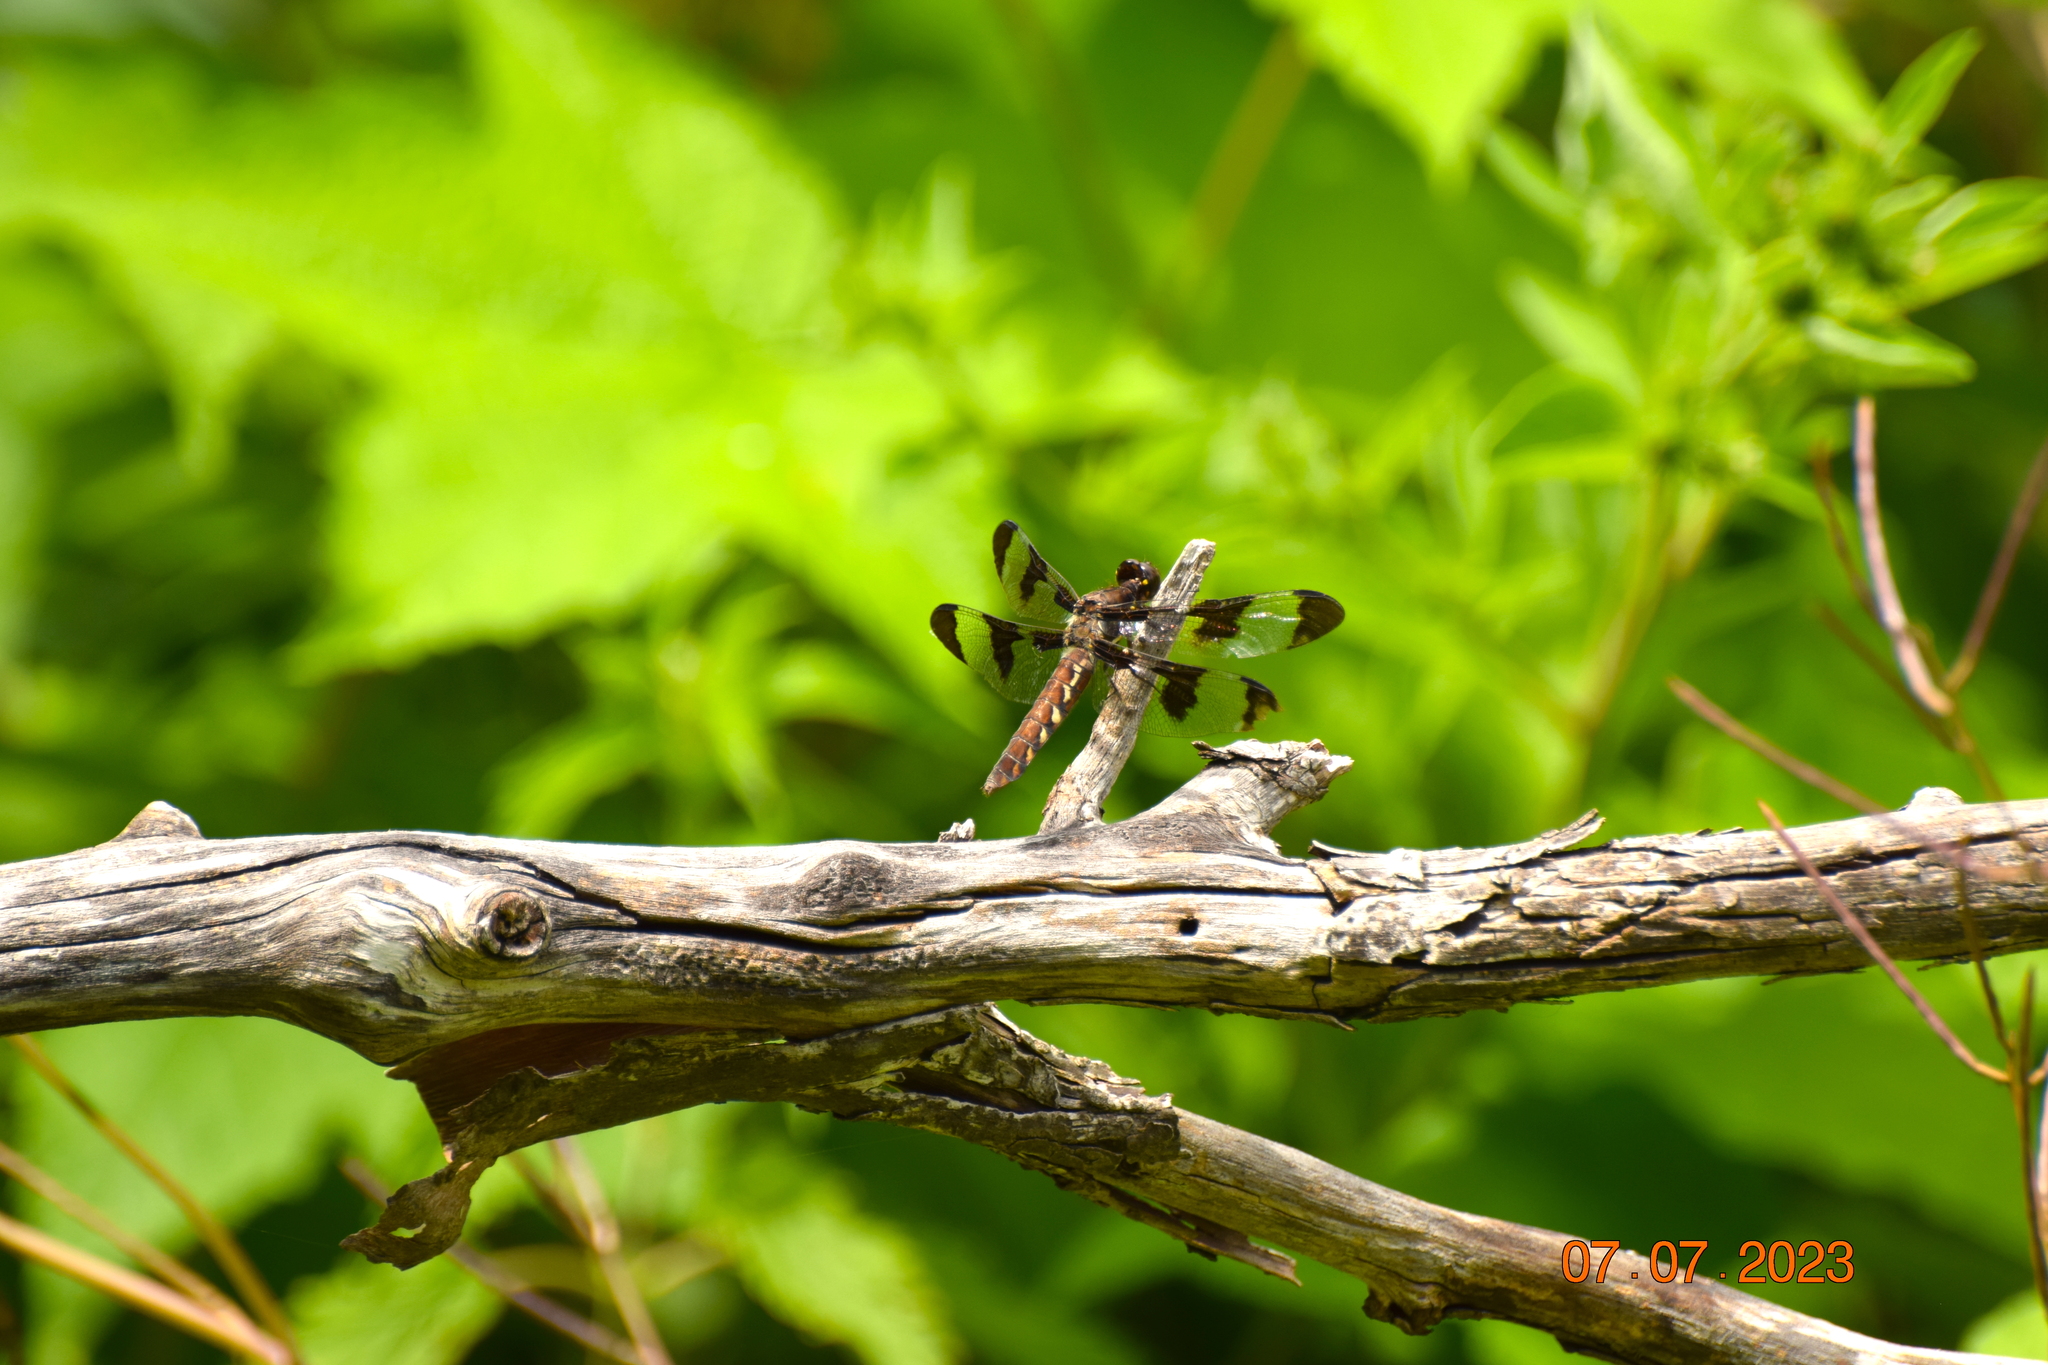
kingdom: Animalia
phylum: Arthropoda
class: Insecta
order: Odonata
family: Libellulidae
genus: Plathemis
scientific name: Plathemis lydia
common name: Common whitetail
